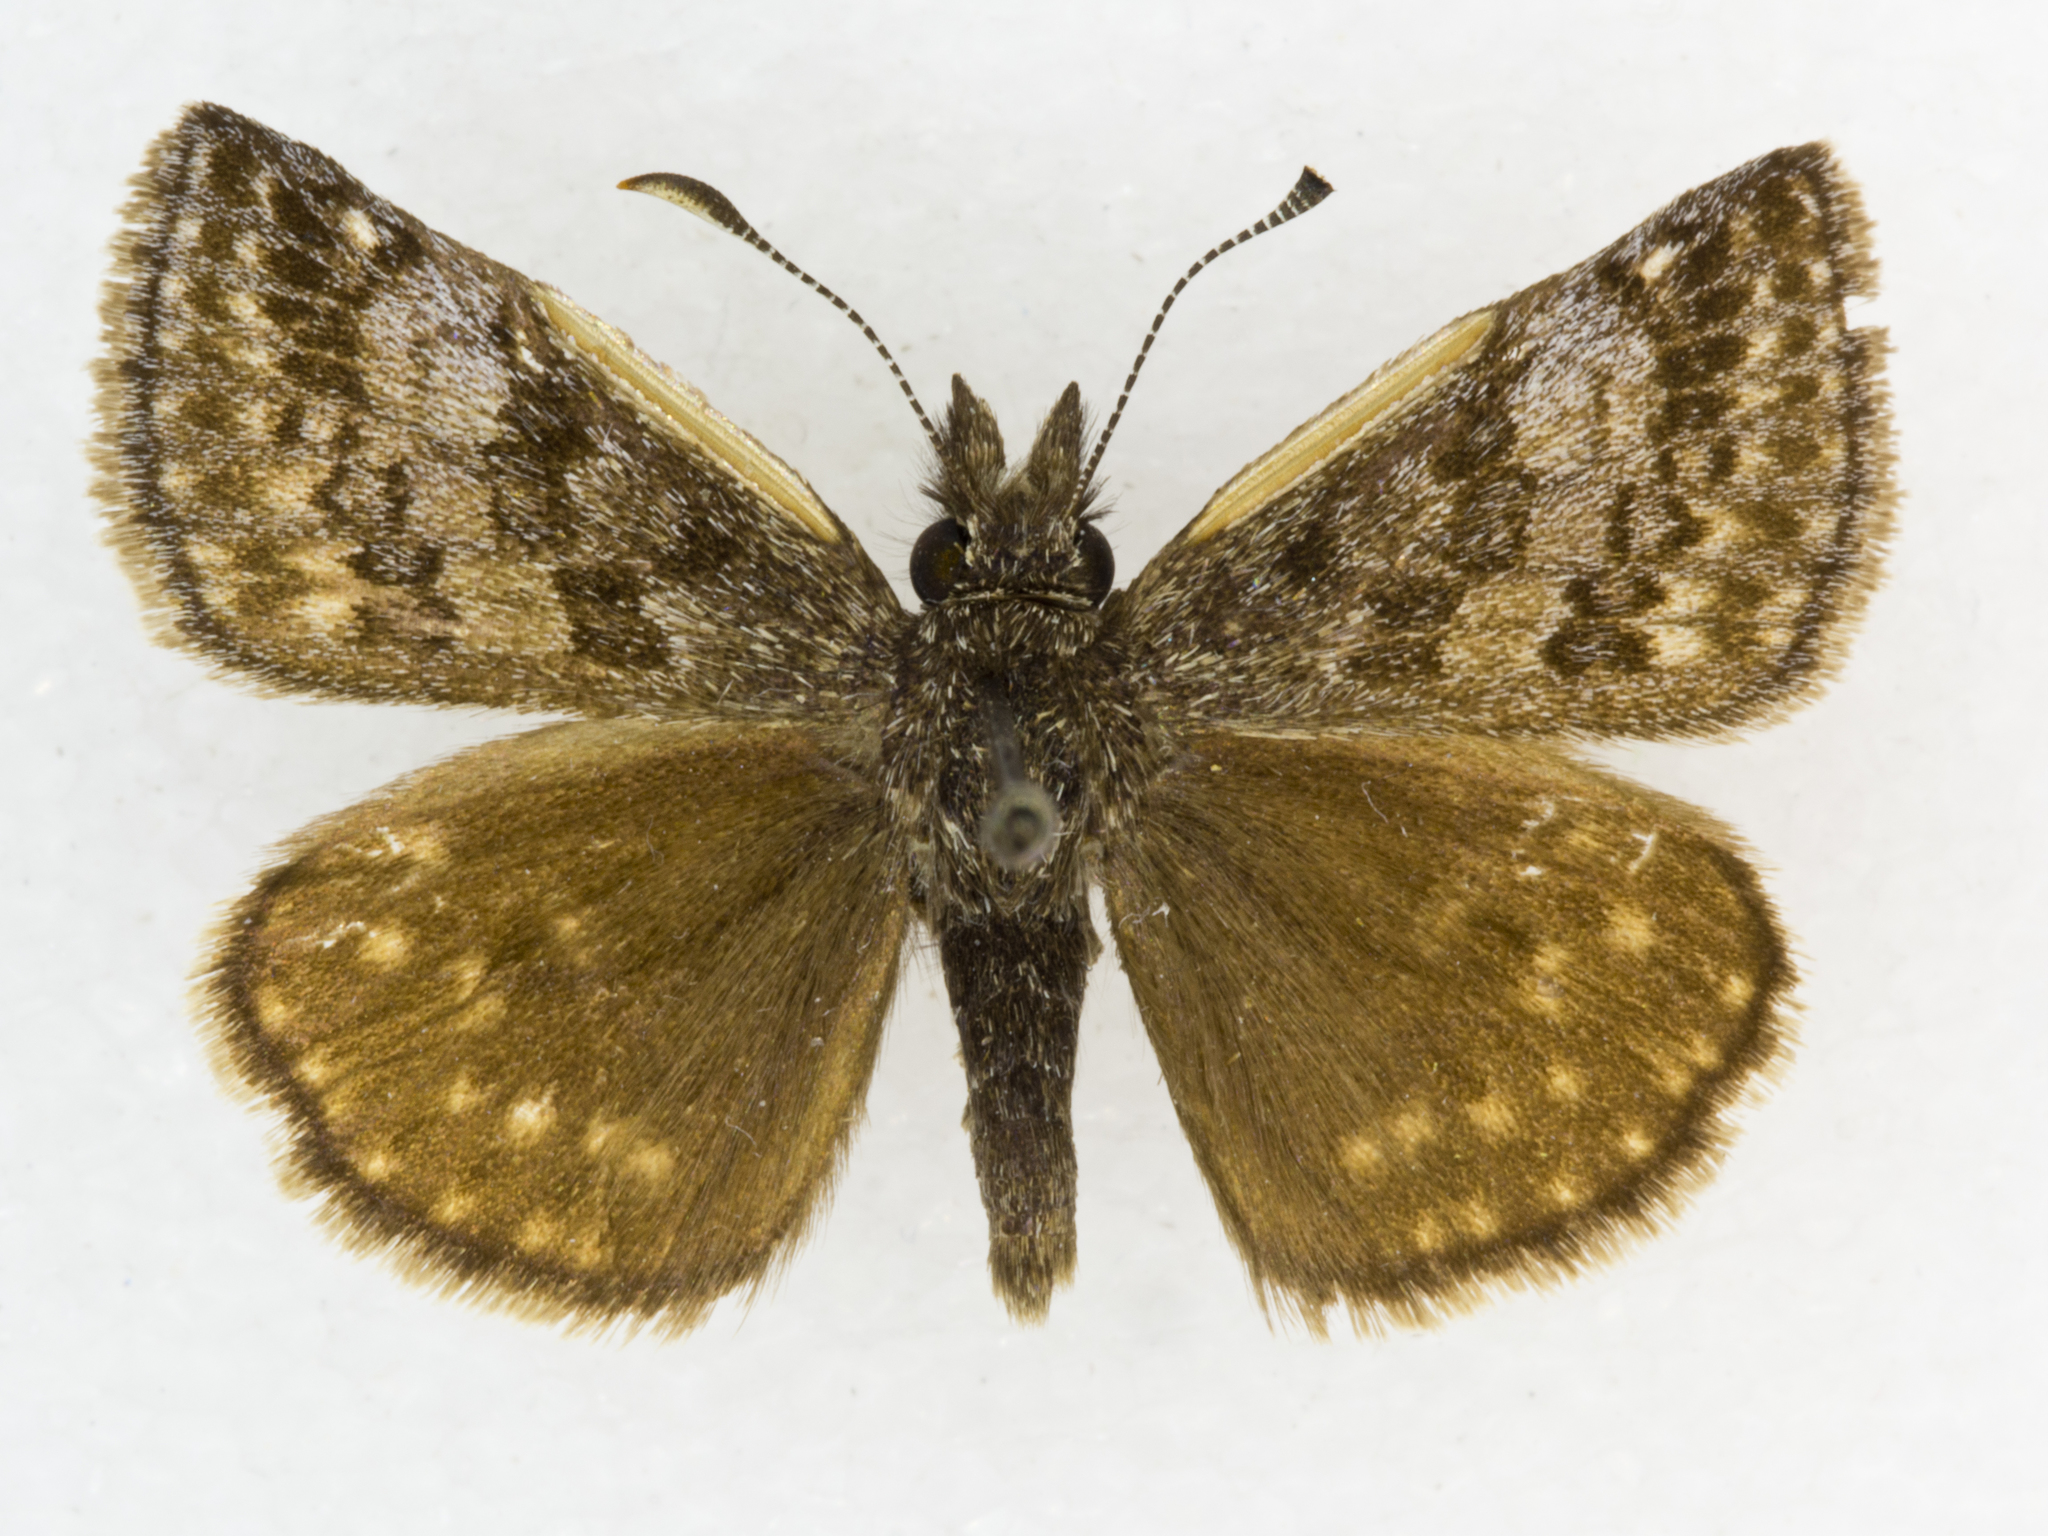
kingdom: Animalia
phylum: Arthropoda
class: Insecta
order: Lepidoptera
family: Hesperiidae
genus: Erynnis
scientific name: Erynnis icelus
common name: Dreamy duskywing
